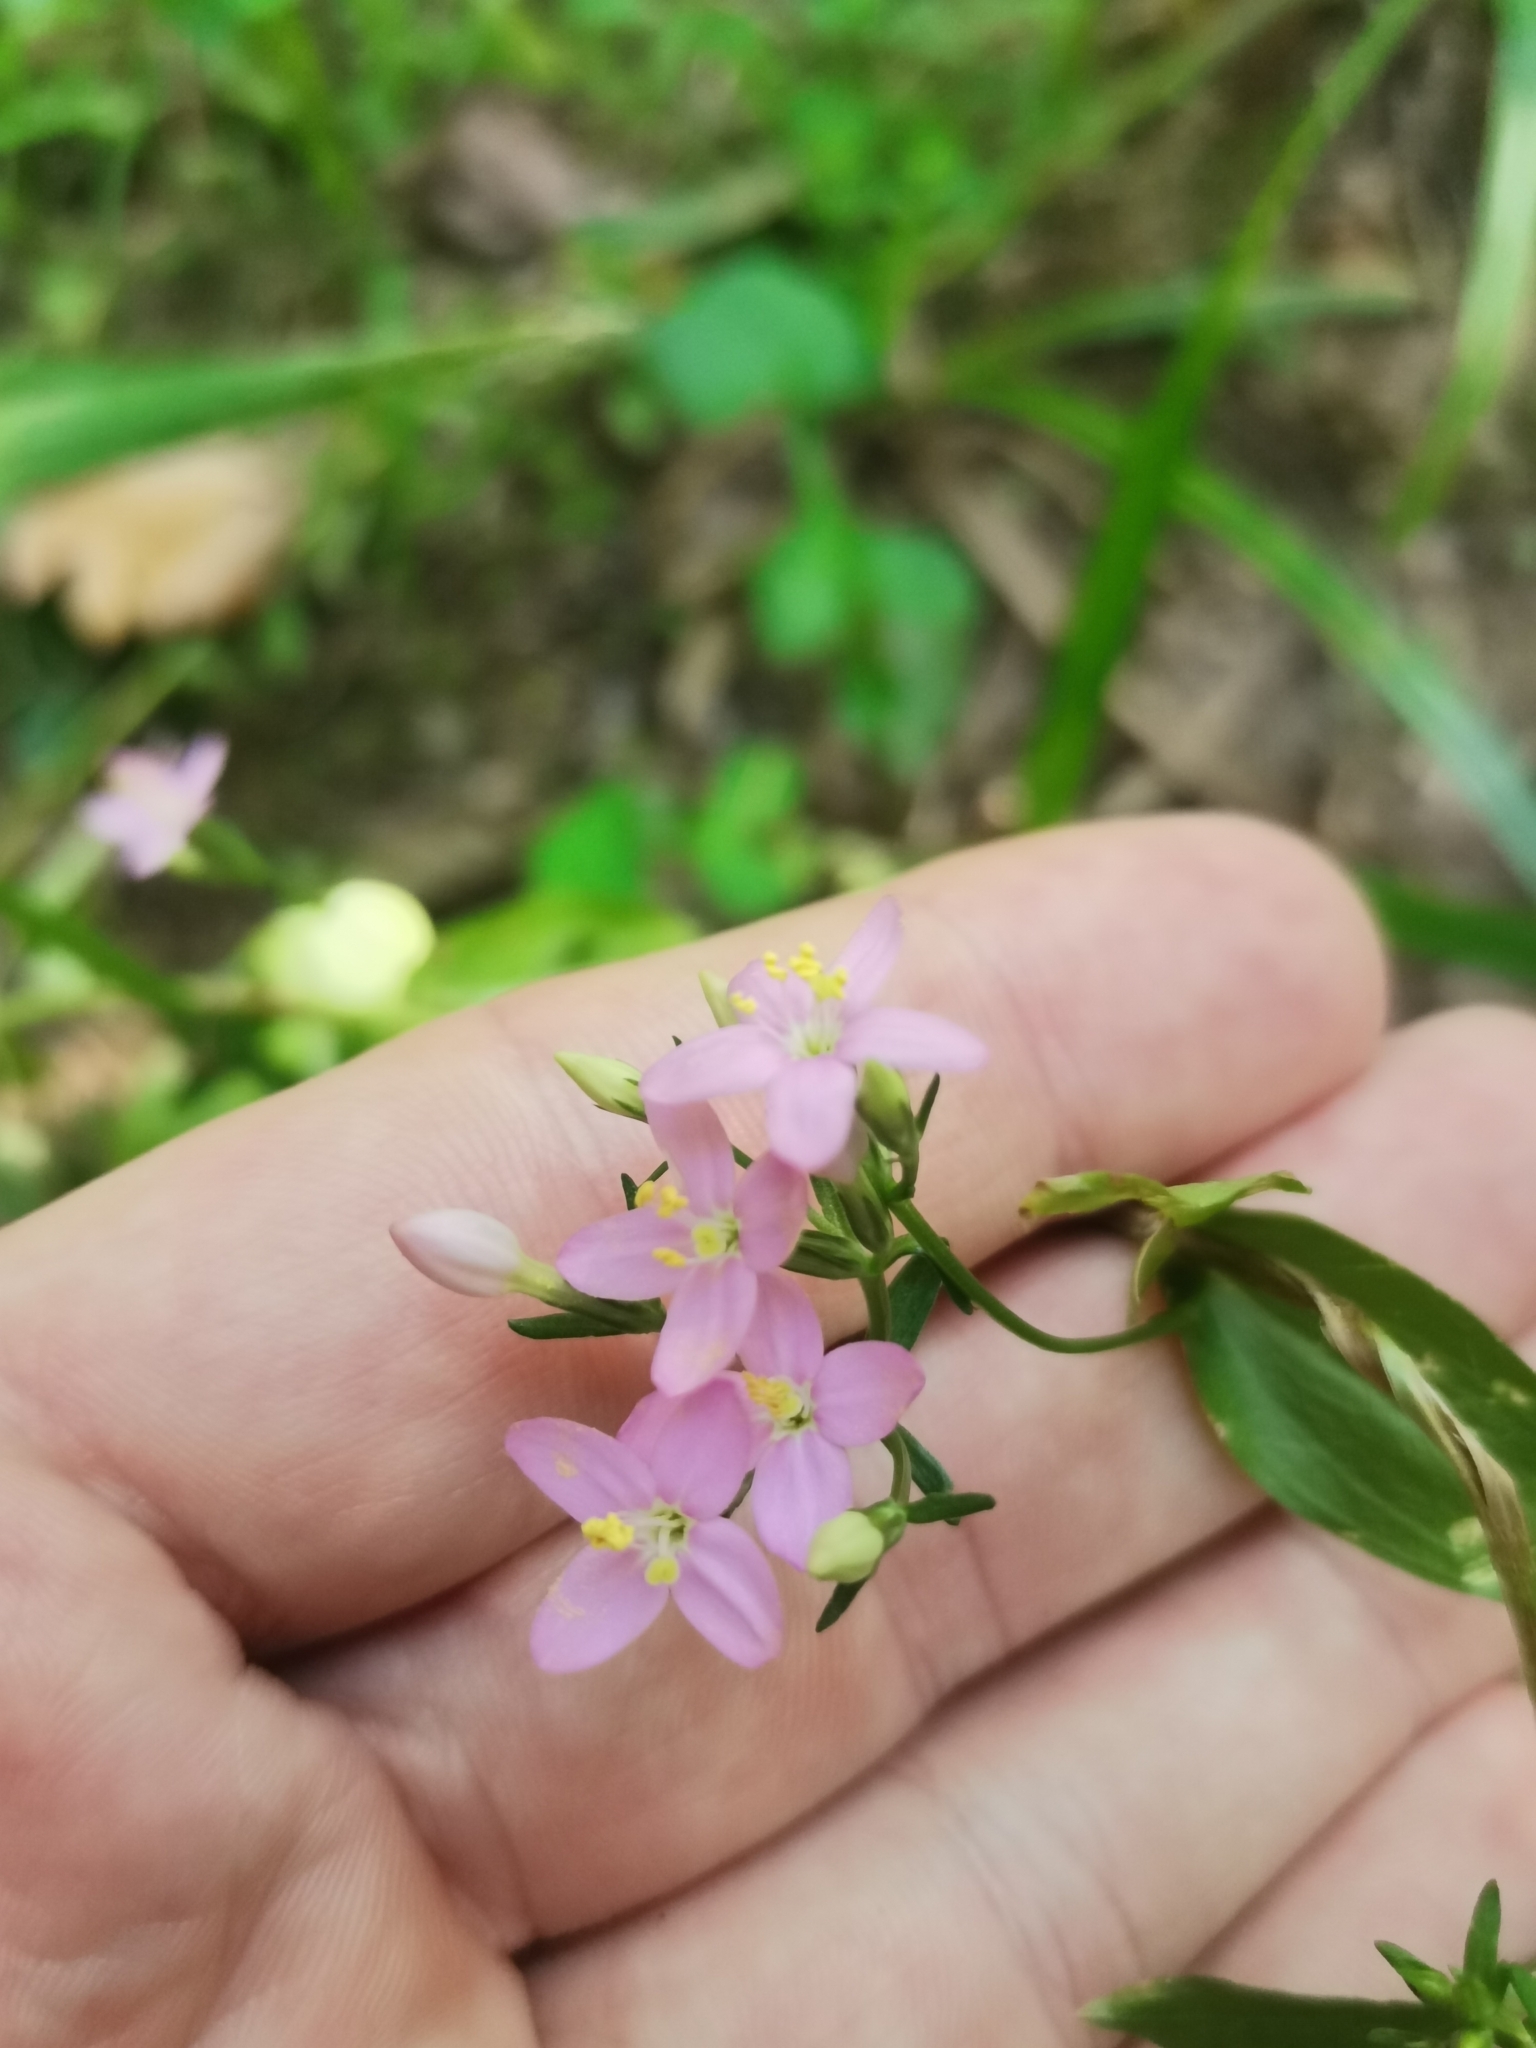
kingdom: Plantae
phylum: Tracheophyta
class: Magnoliopsida
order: Gentianales
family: Gentianaceae
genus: Centaurium
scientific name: Centaurium erythraea
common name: Common centaury
